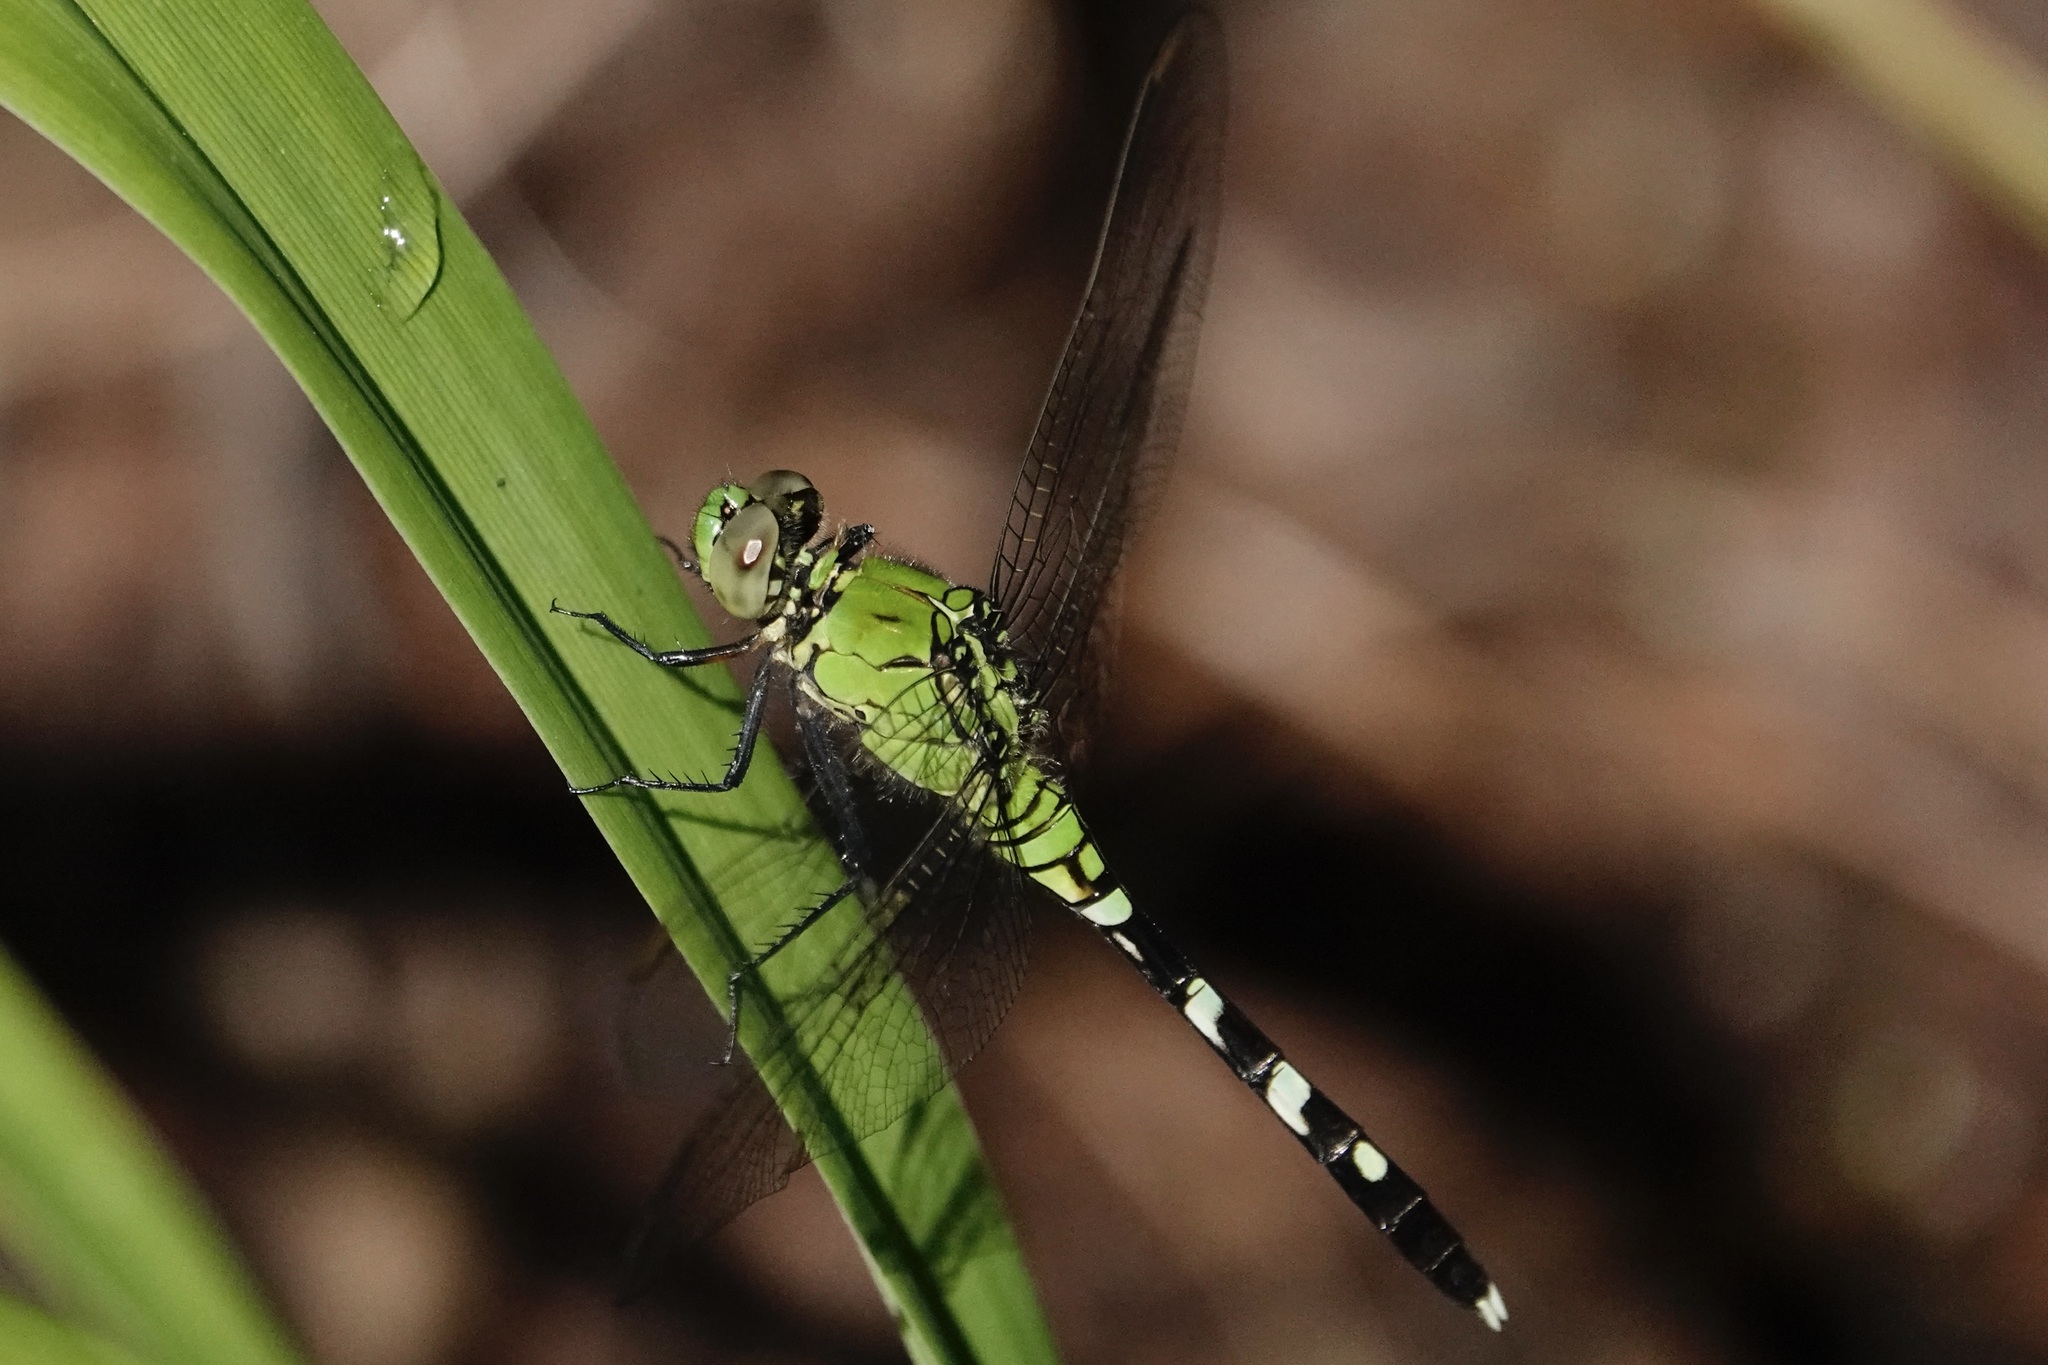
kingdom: Animalia
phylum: Arthropoda
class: Insecta
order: Odonata
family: Libellulidae
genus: Erythemis
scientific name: Erythemis simplicicollis
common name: Eastern pondhawk
